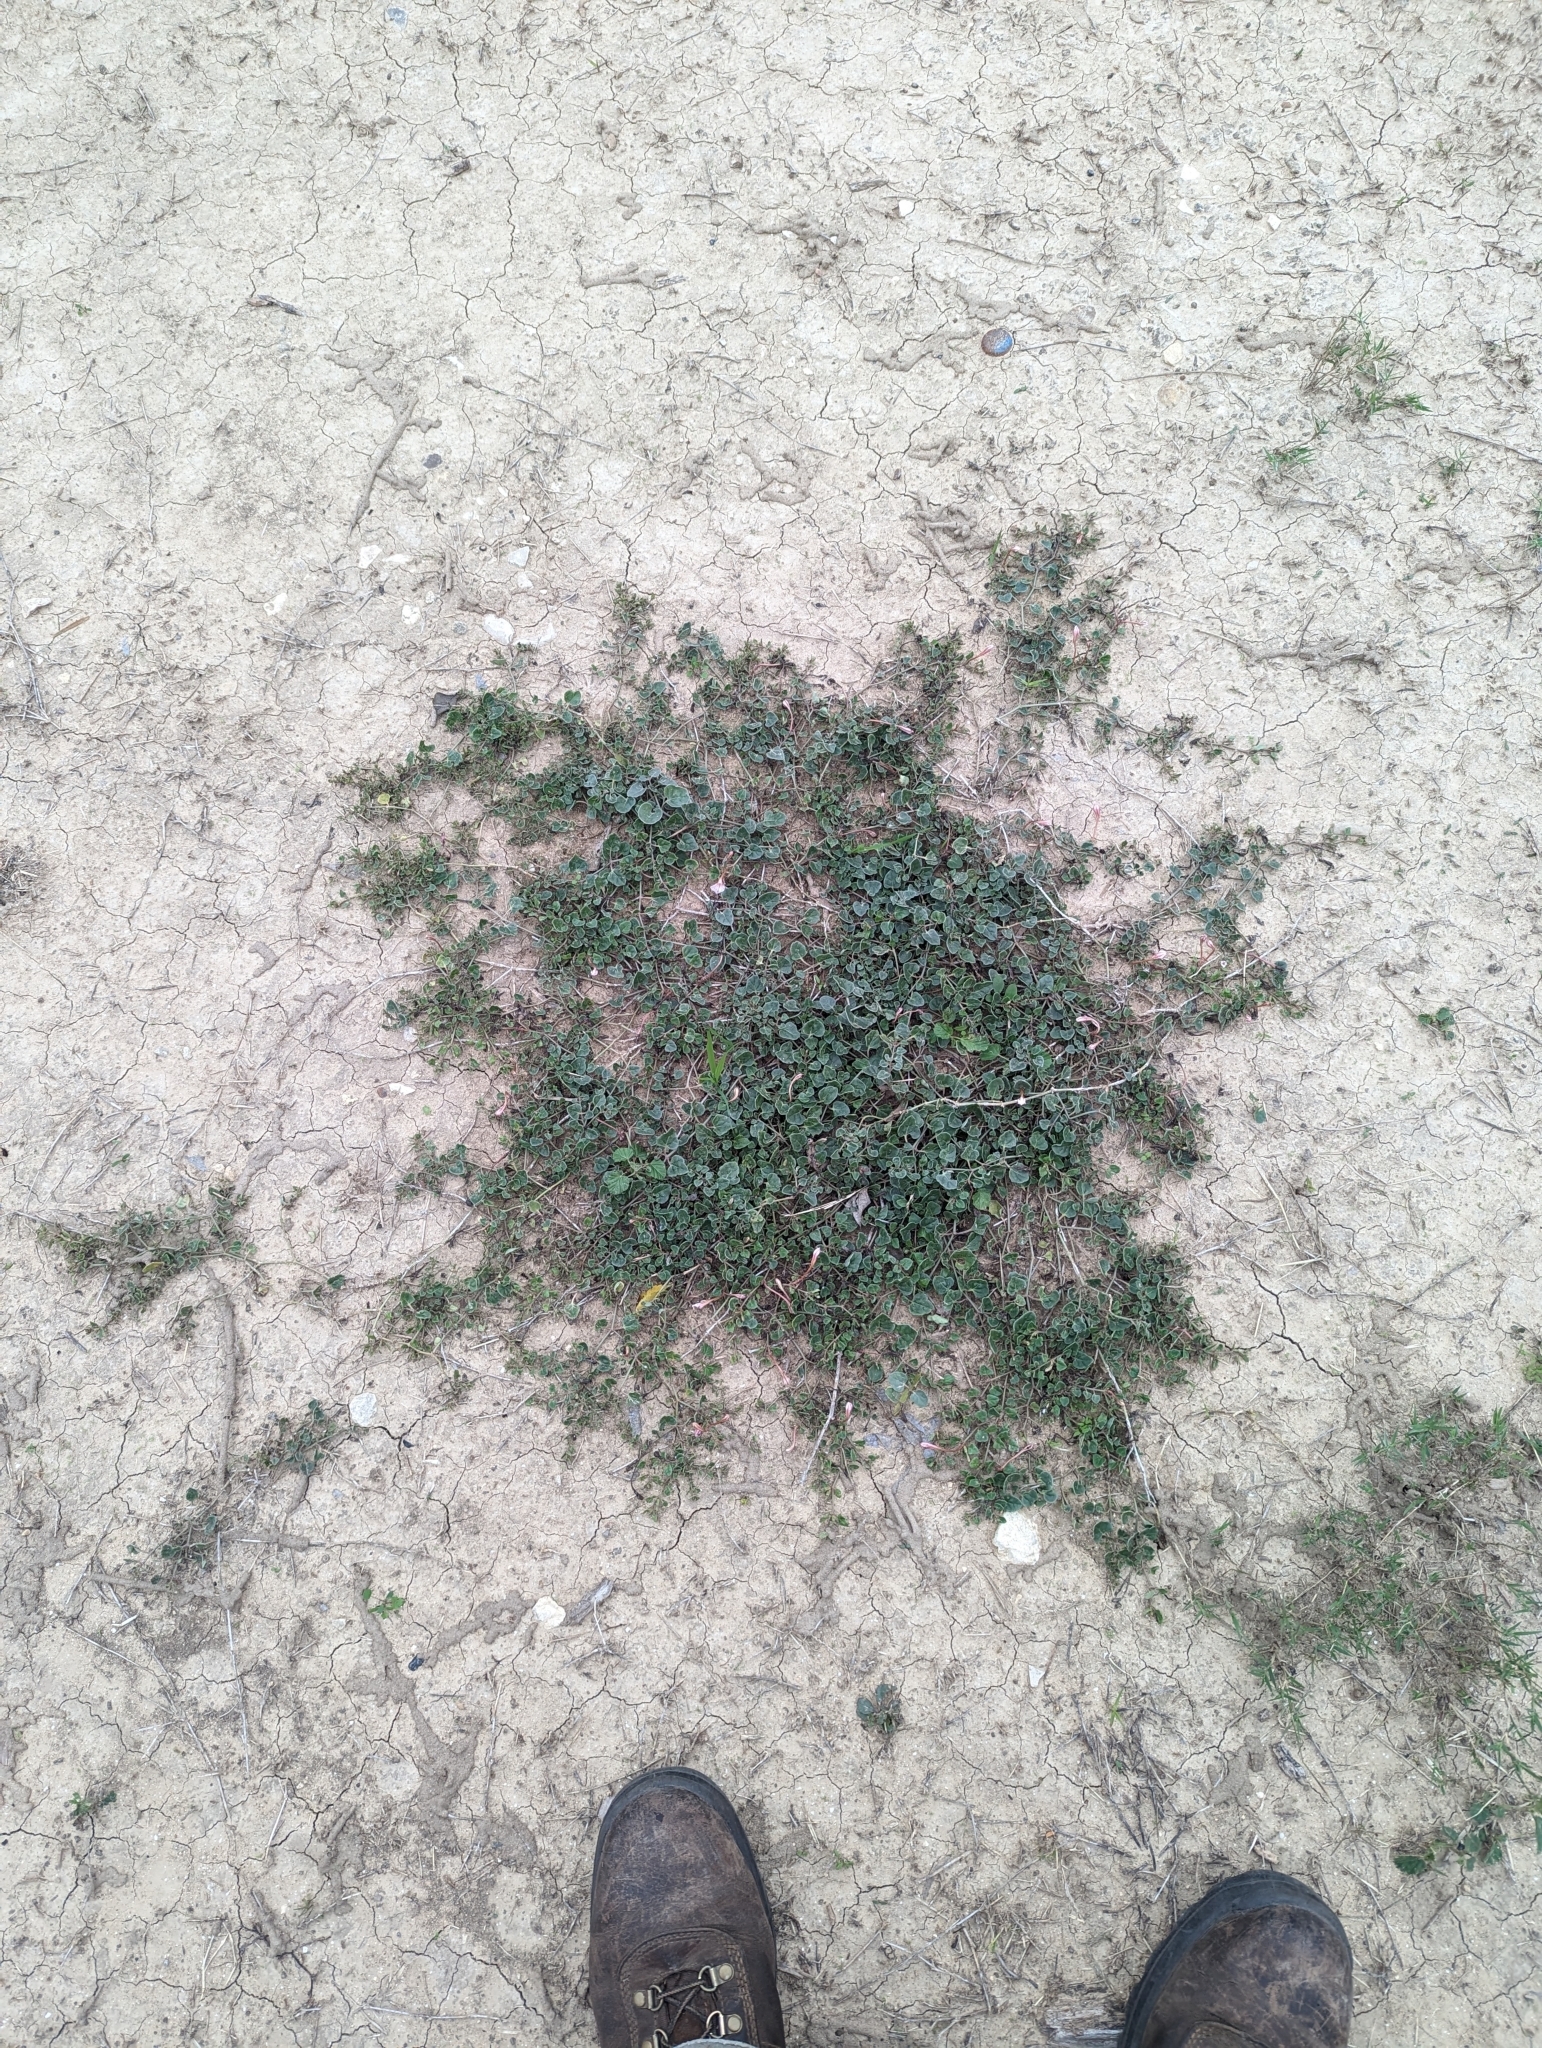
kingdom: Plantae
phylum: Tracheophyta
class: Magnoliopsida
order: Caryophyllales
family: Nyctaginaceae
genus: Acleisanthes
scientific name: Acleisanthes obtusa
